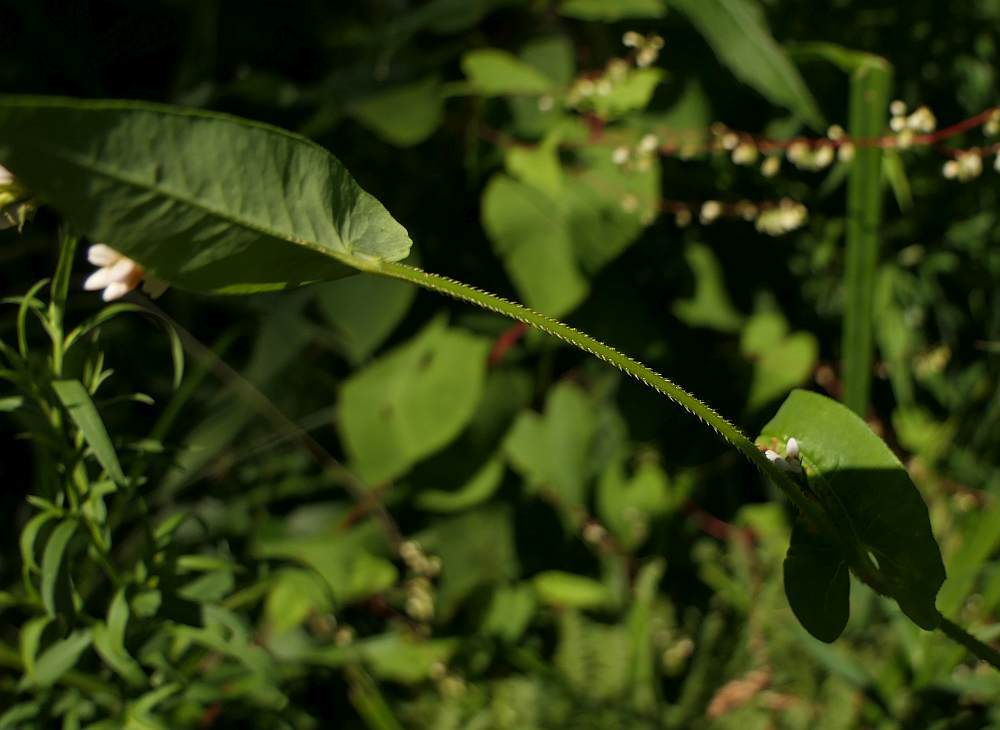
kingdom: Plantae
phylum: Tracheophyta
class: Magnoliopsida
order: Caryophyllales
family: Polygonaceae
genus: Persicaria
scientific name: Persicaria sagittata
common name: American tearthumb
